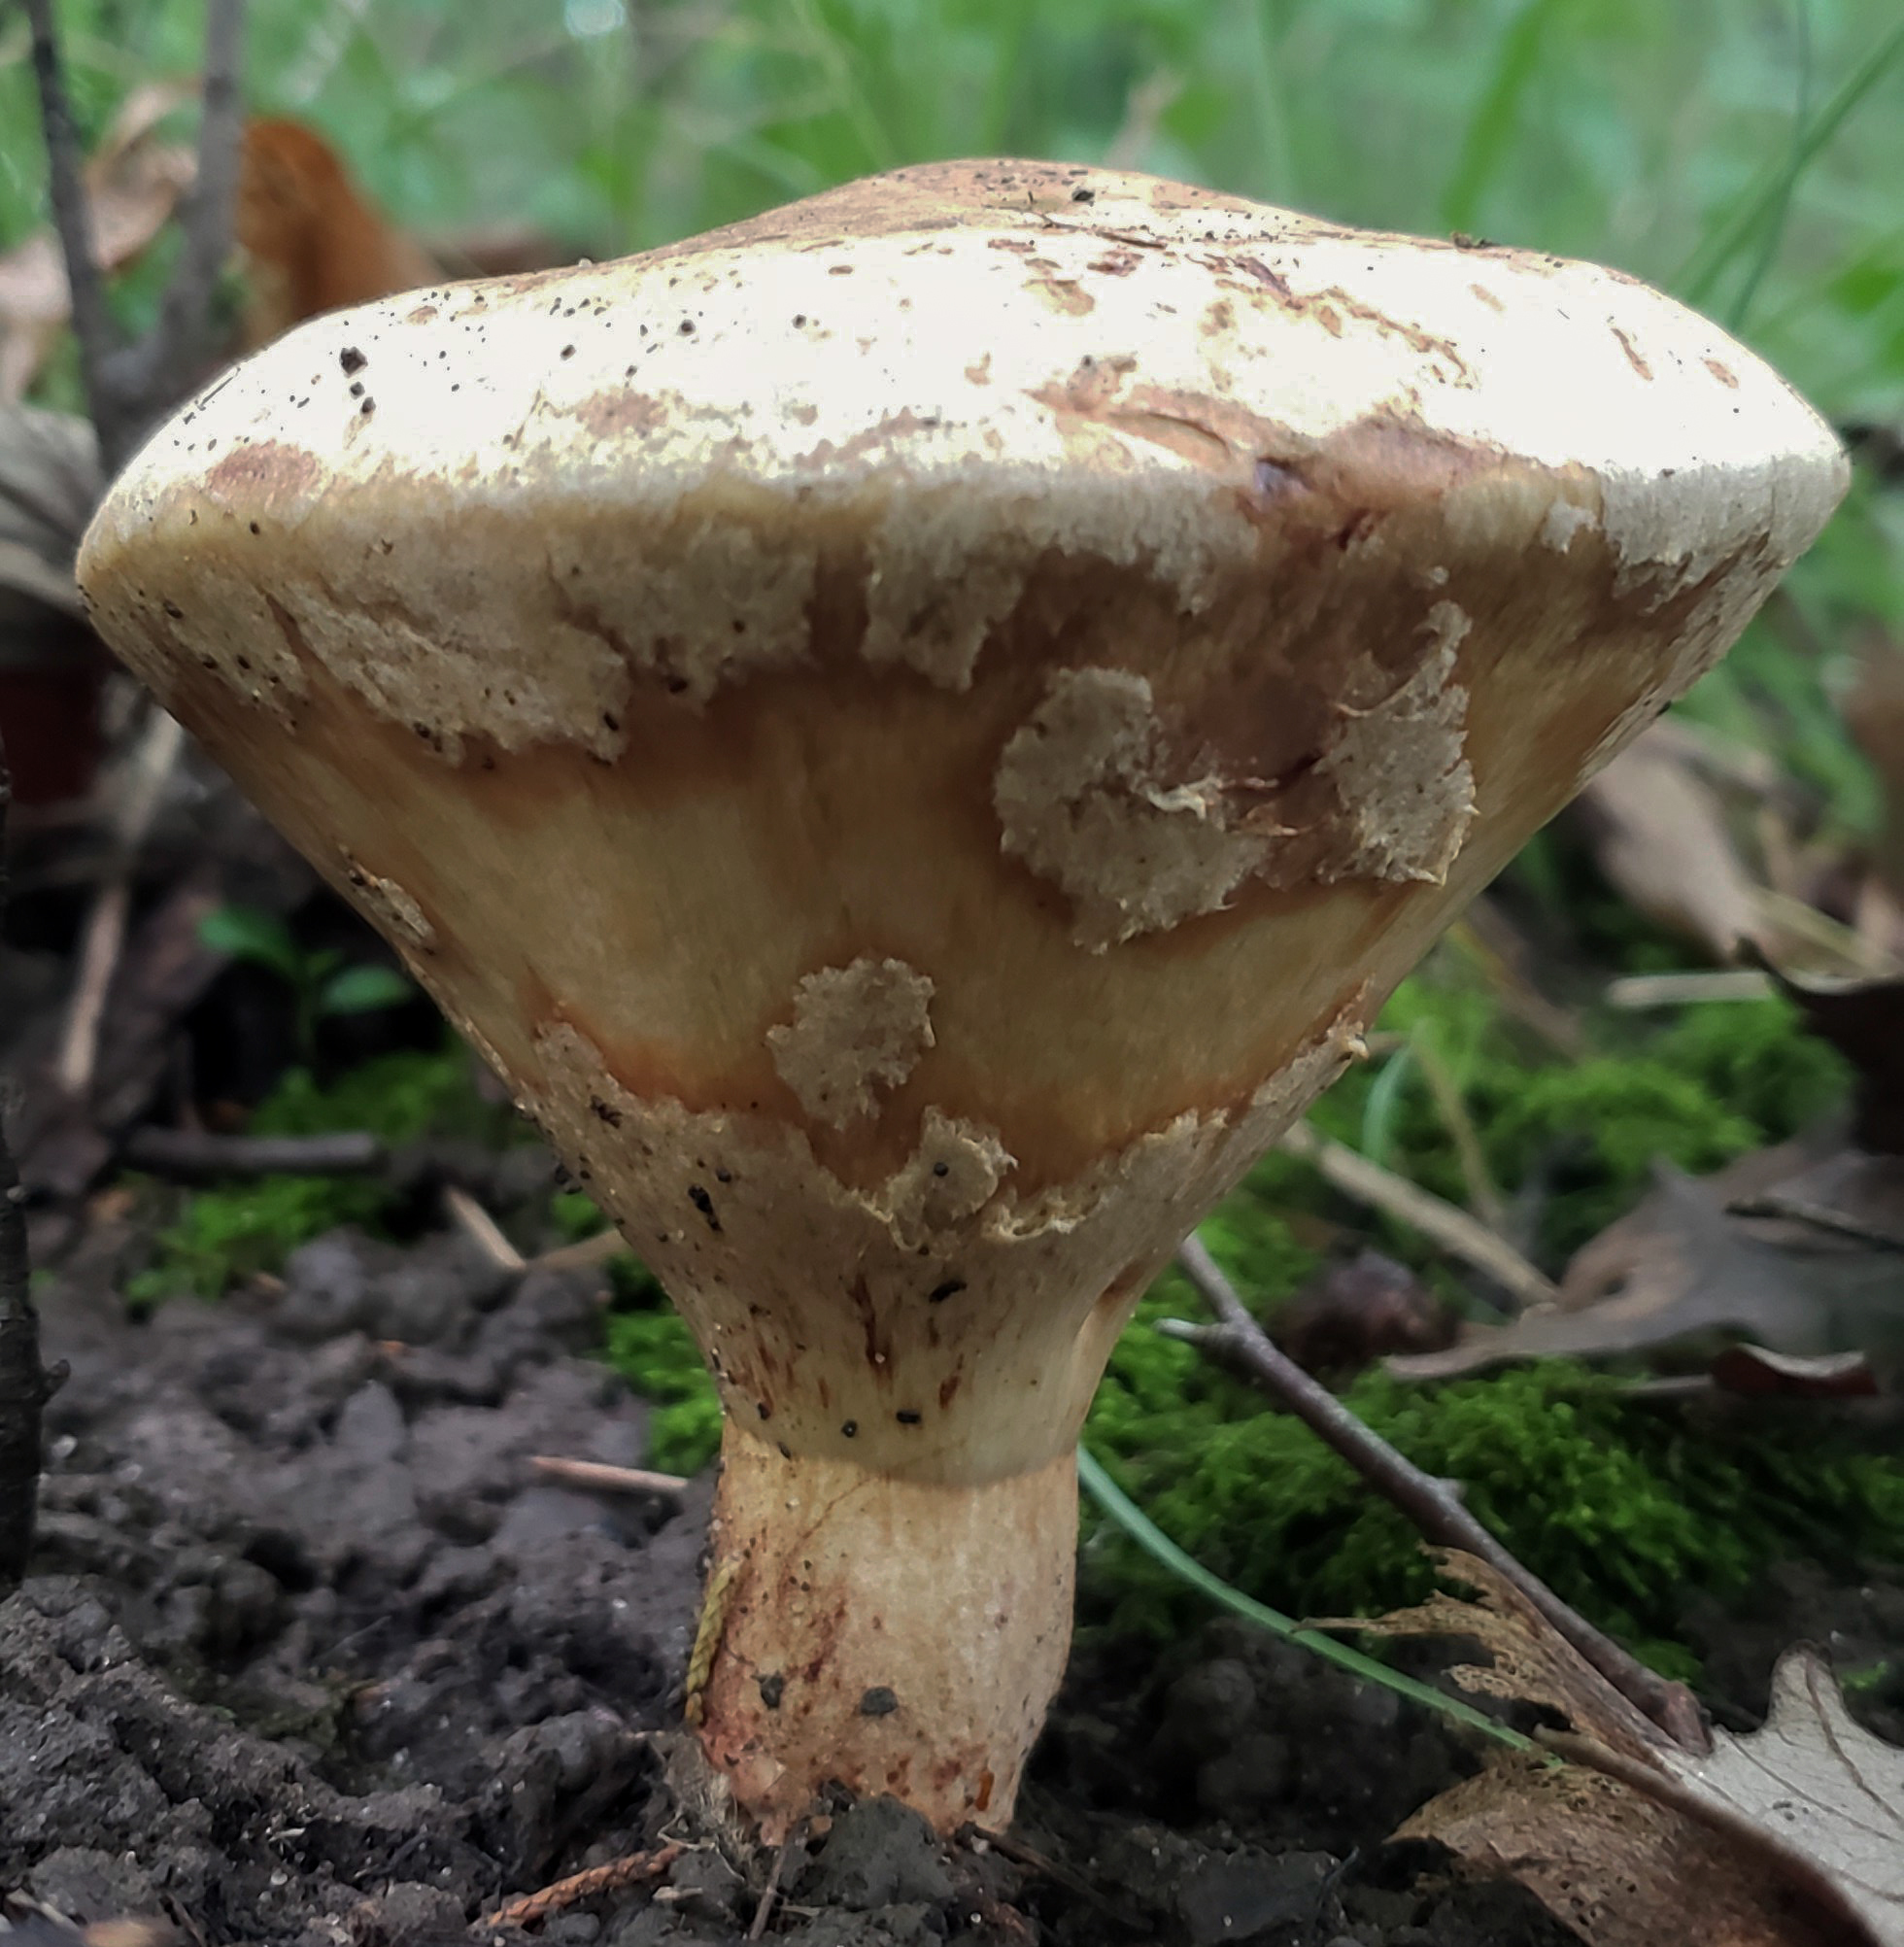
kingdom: Fungi
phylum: Basidiomycota
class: Agaricomycetes
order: Boletales
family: Paxillaceae
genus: Paragyrodon
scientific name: Paragyrodon sphaerosporus
